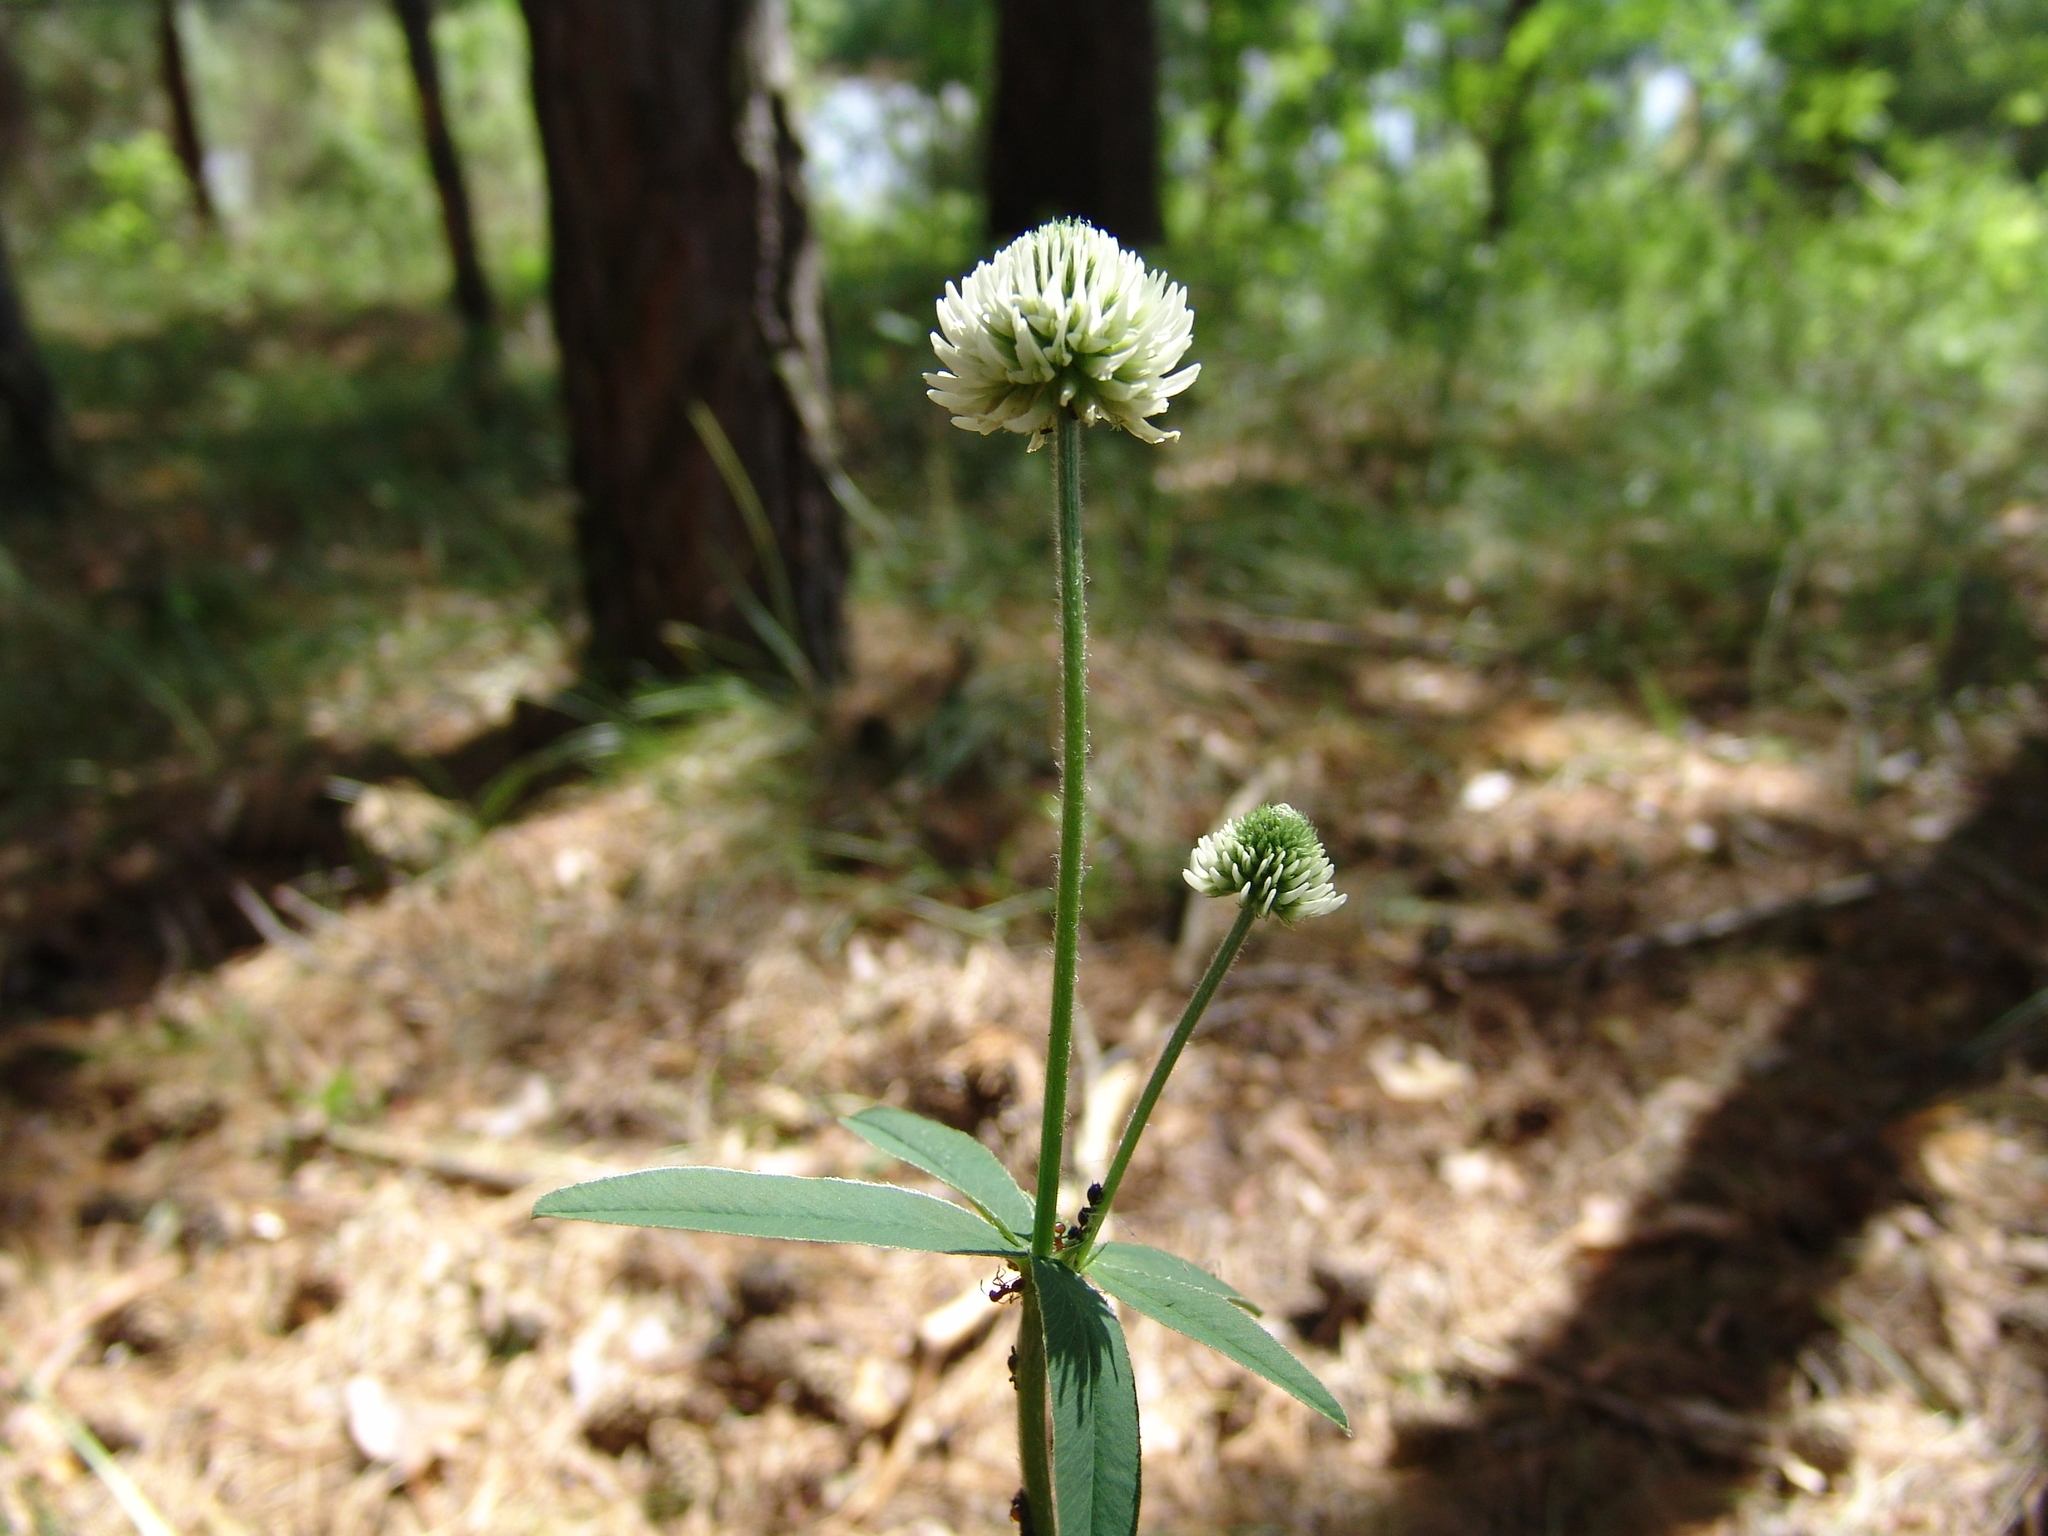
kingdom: Plantae
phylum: Tracheophyta
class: Magnoliopsida
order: Fabales
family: Fabaceae
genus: Trifolium
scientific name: Trifolium montanum
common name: Mountain clover
